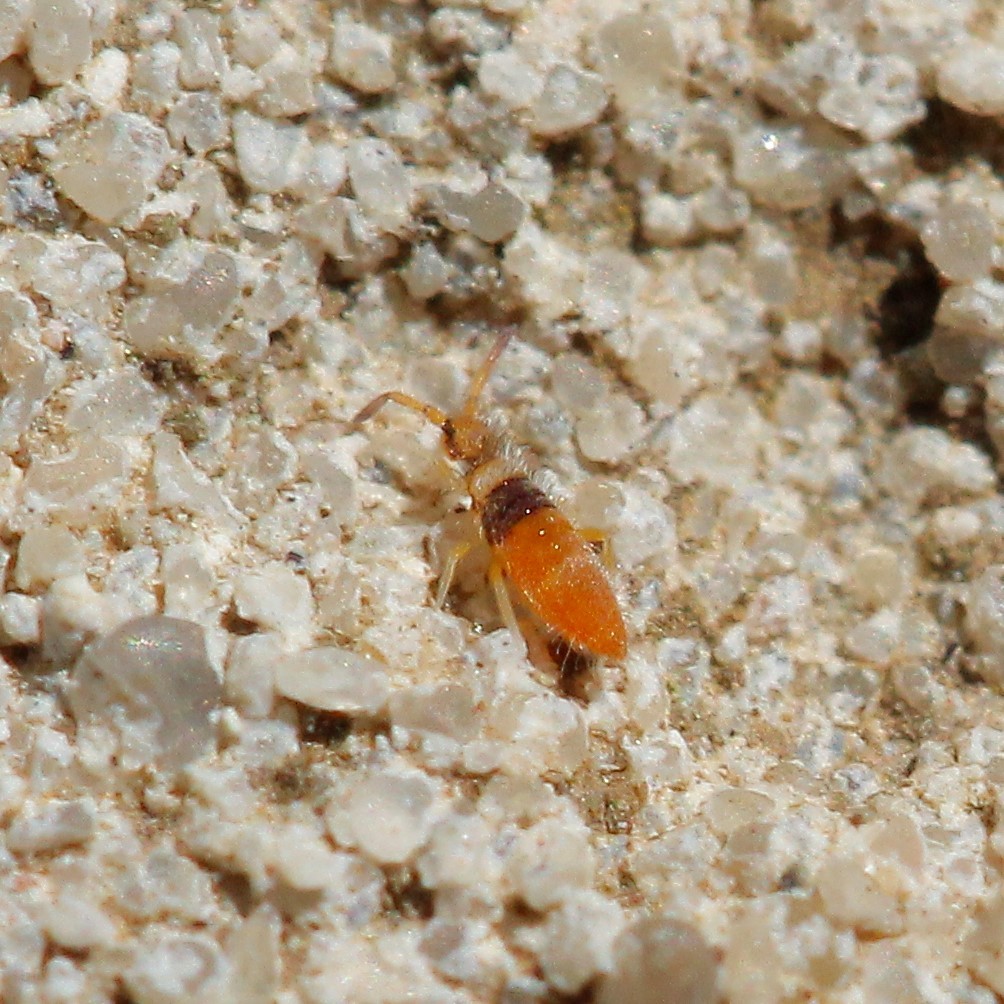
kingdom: Animalia
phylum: Arthropoda
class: Collembola
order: Entomobryomorpha
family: Entomobryidae
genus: Entomobrya
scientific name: Entomobrya nigrocincta
